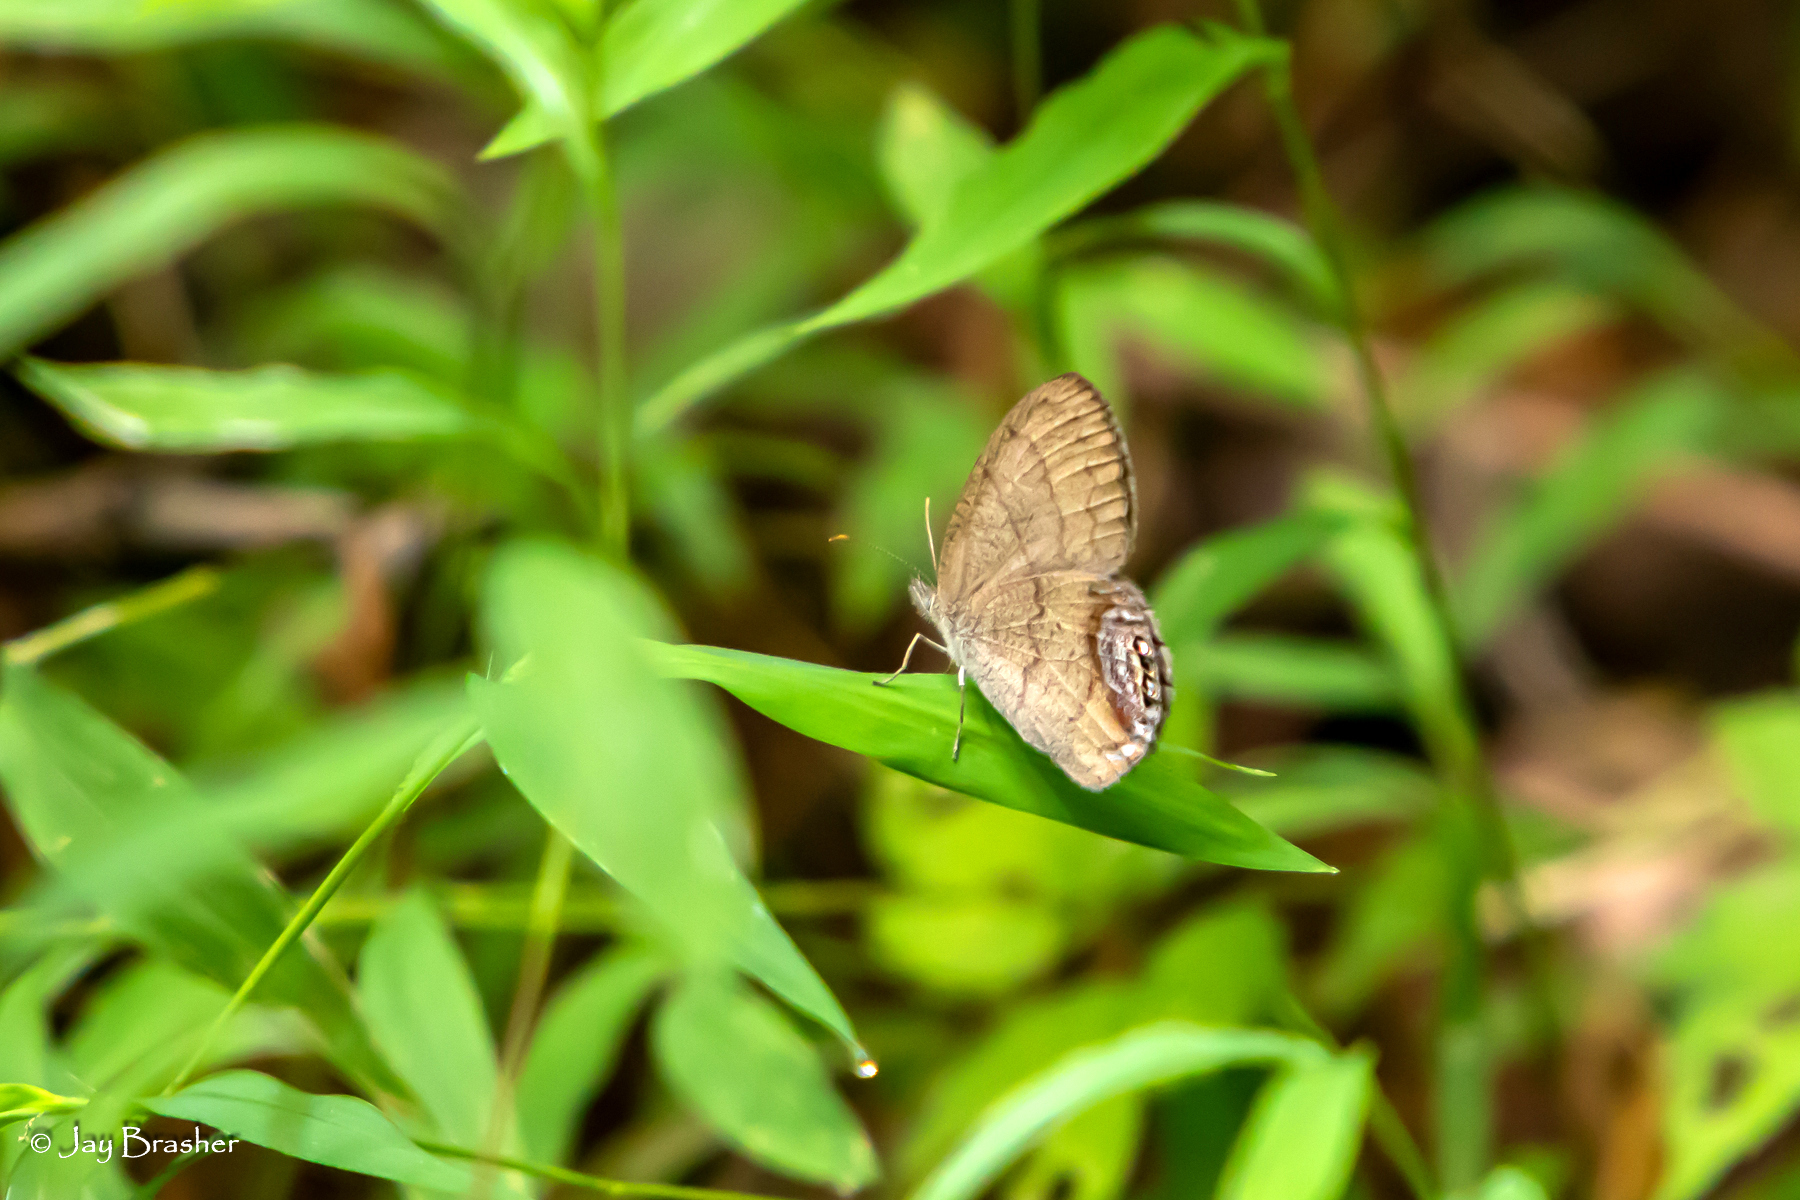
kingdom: Animalia
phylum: Arthropoda
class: Insecta
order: Lepidoptera
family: Nymphalidae
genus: Euptychia
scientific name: Euptychia cornelius
